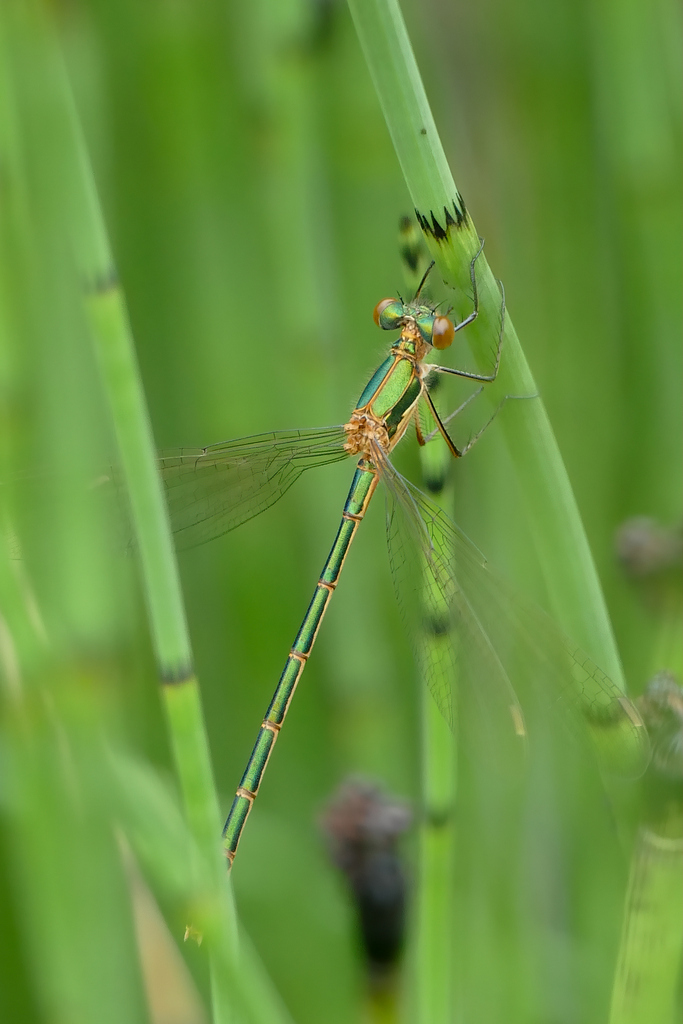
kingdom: Animalia
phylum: Arthropoda
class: Insecta
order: Odonata
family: Lestidae
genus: Lestes
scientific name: Lestes sponsa
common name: Common spreadwing
